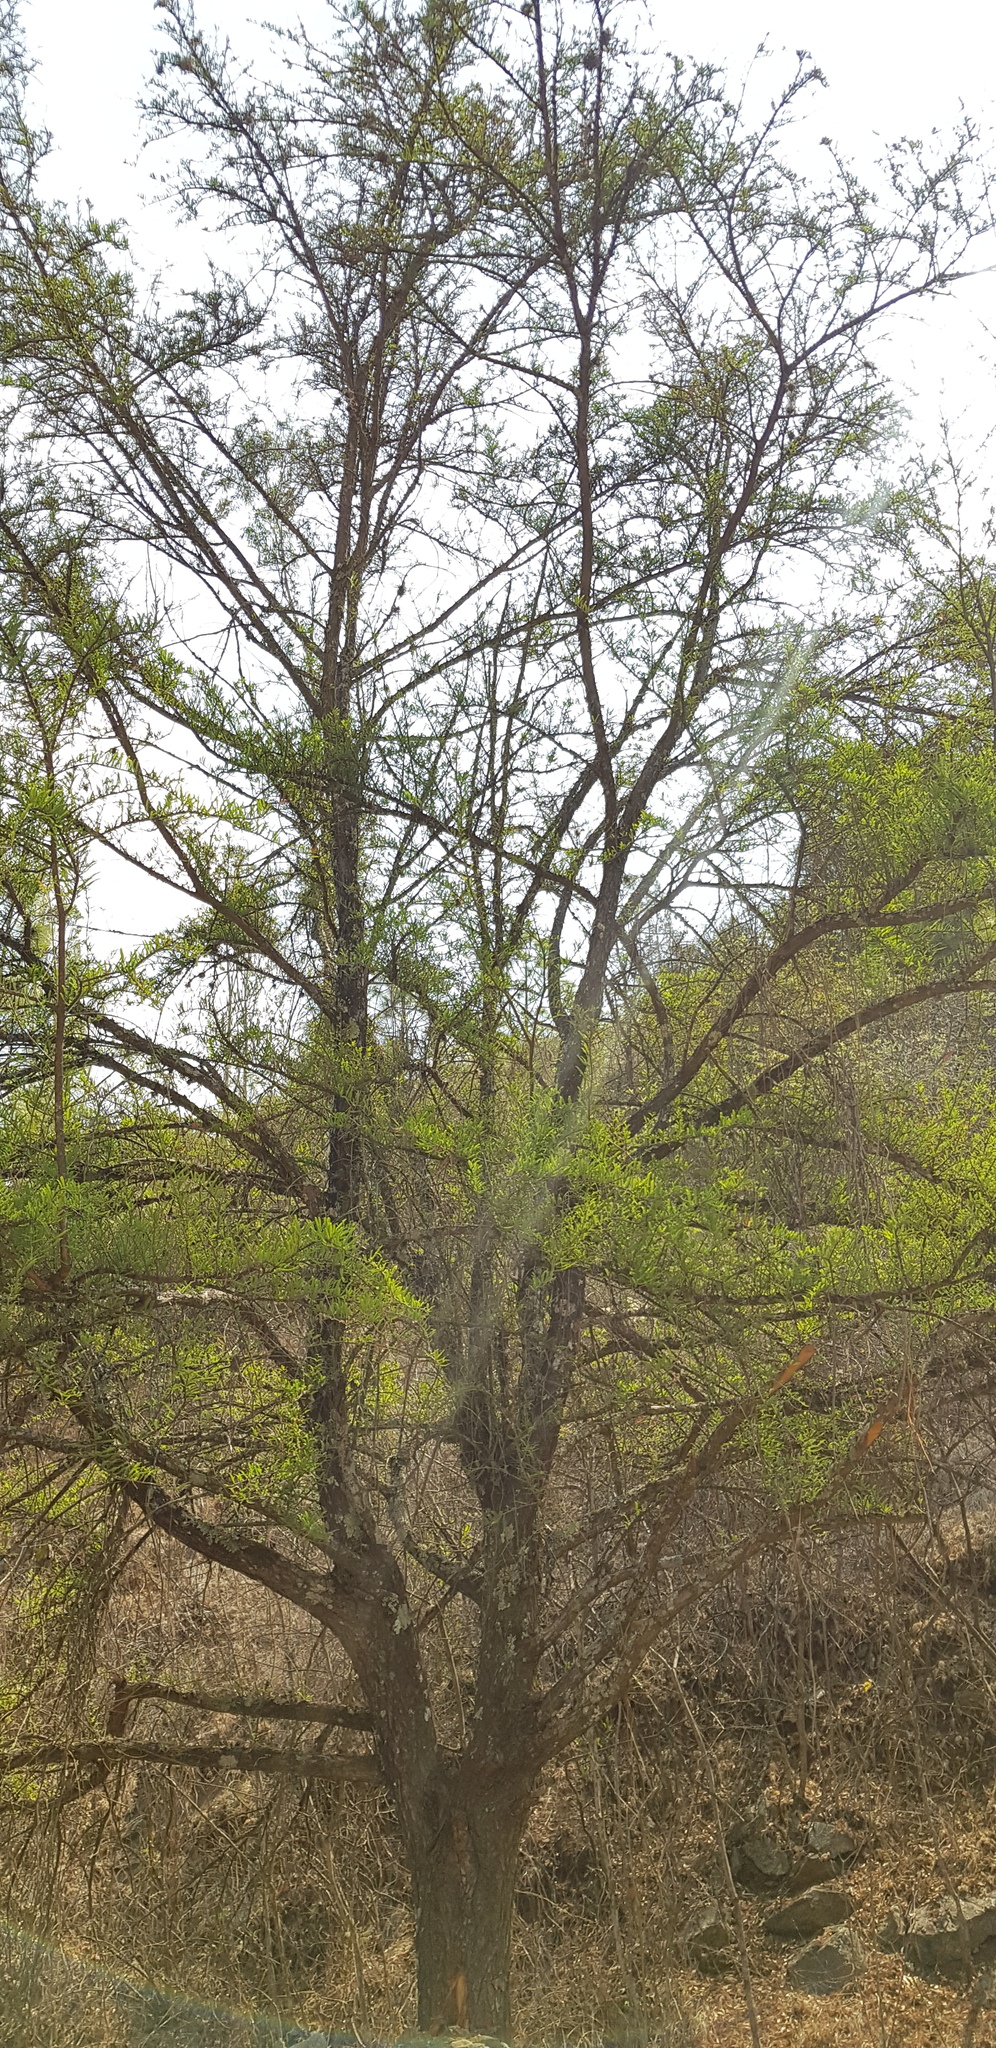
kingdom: Plantae
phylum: Tracheophyta
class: Pinopsida
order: Pinales
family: Cupressaceae
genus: Taxodium
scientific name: Taxodium mucronatum
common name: Montezume bald cypress
